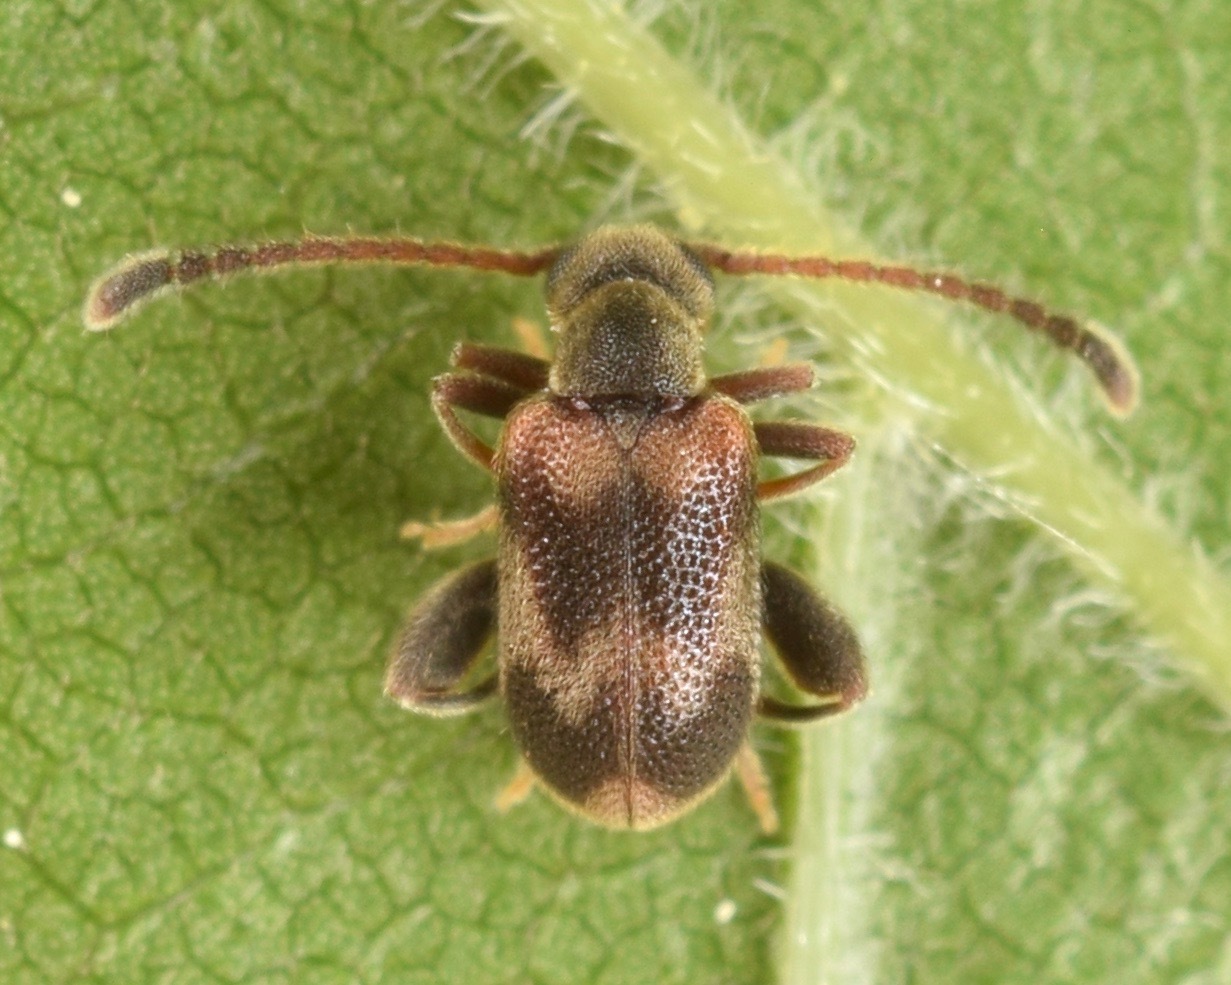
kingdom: Animalia
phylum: Arthropoda
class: Insecta
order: Coleoptera
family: Aderidae
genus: Elonus
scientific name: Elonus nebulosus
